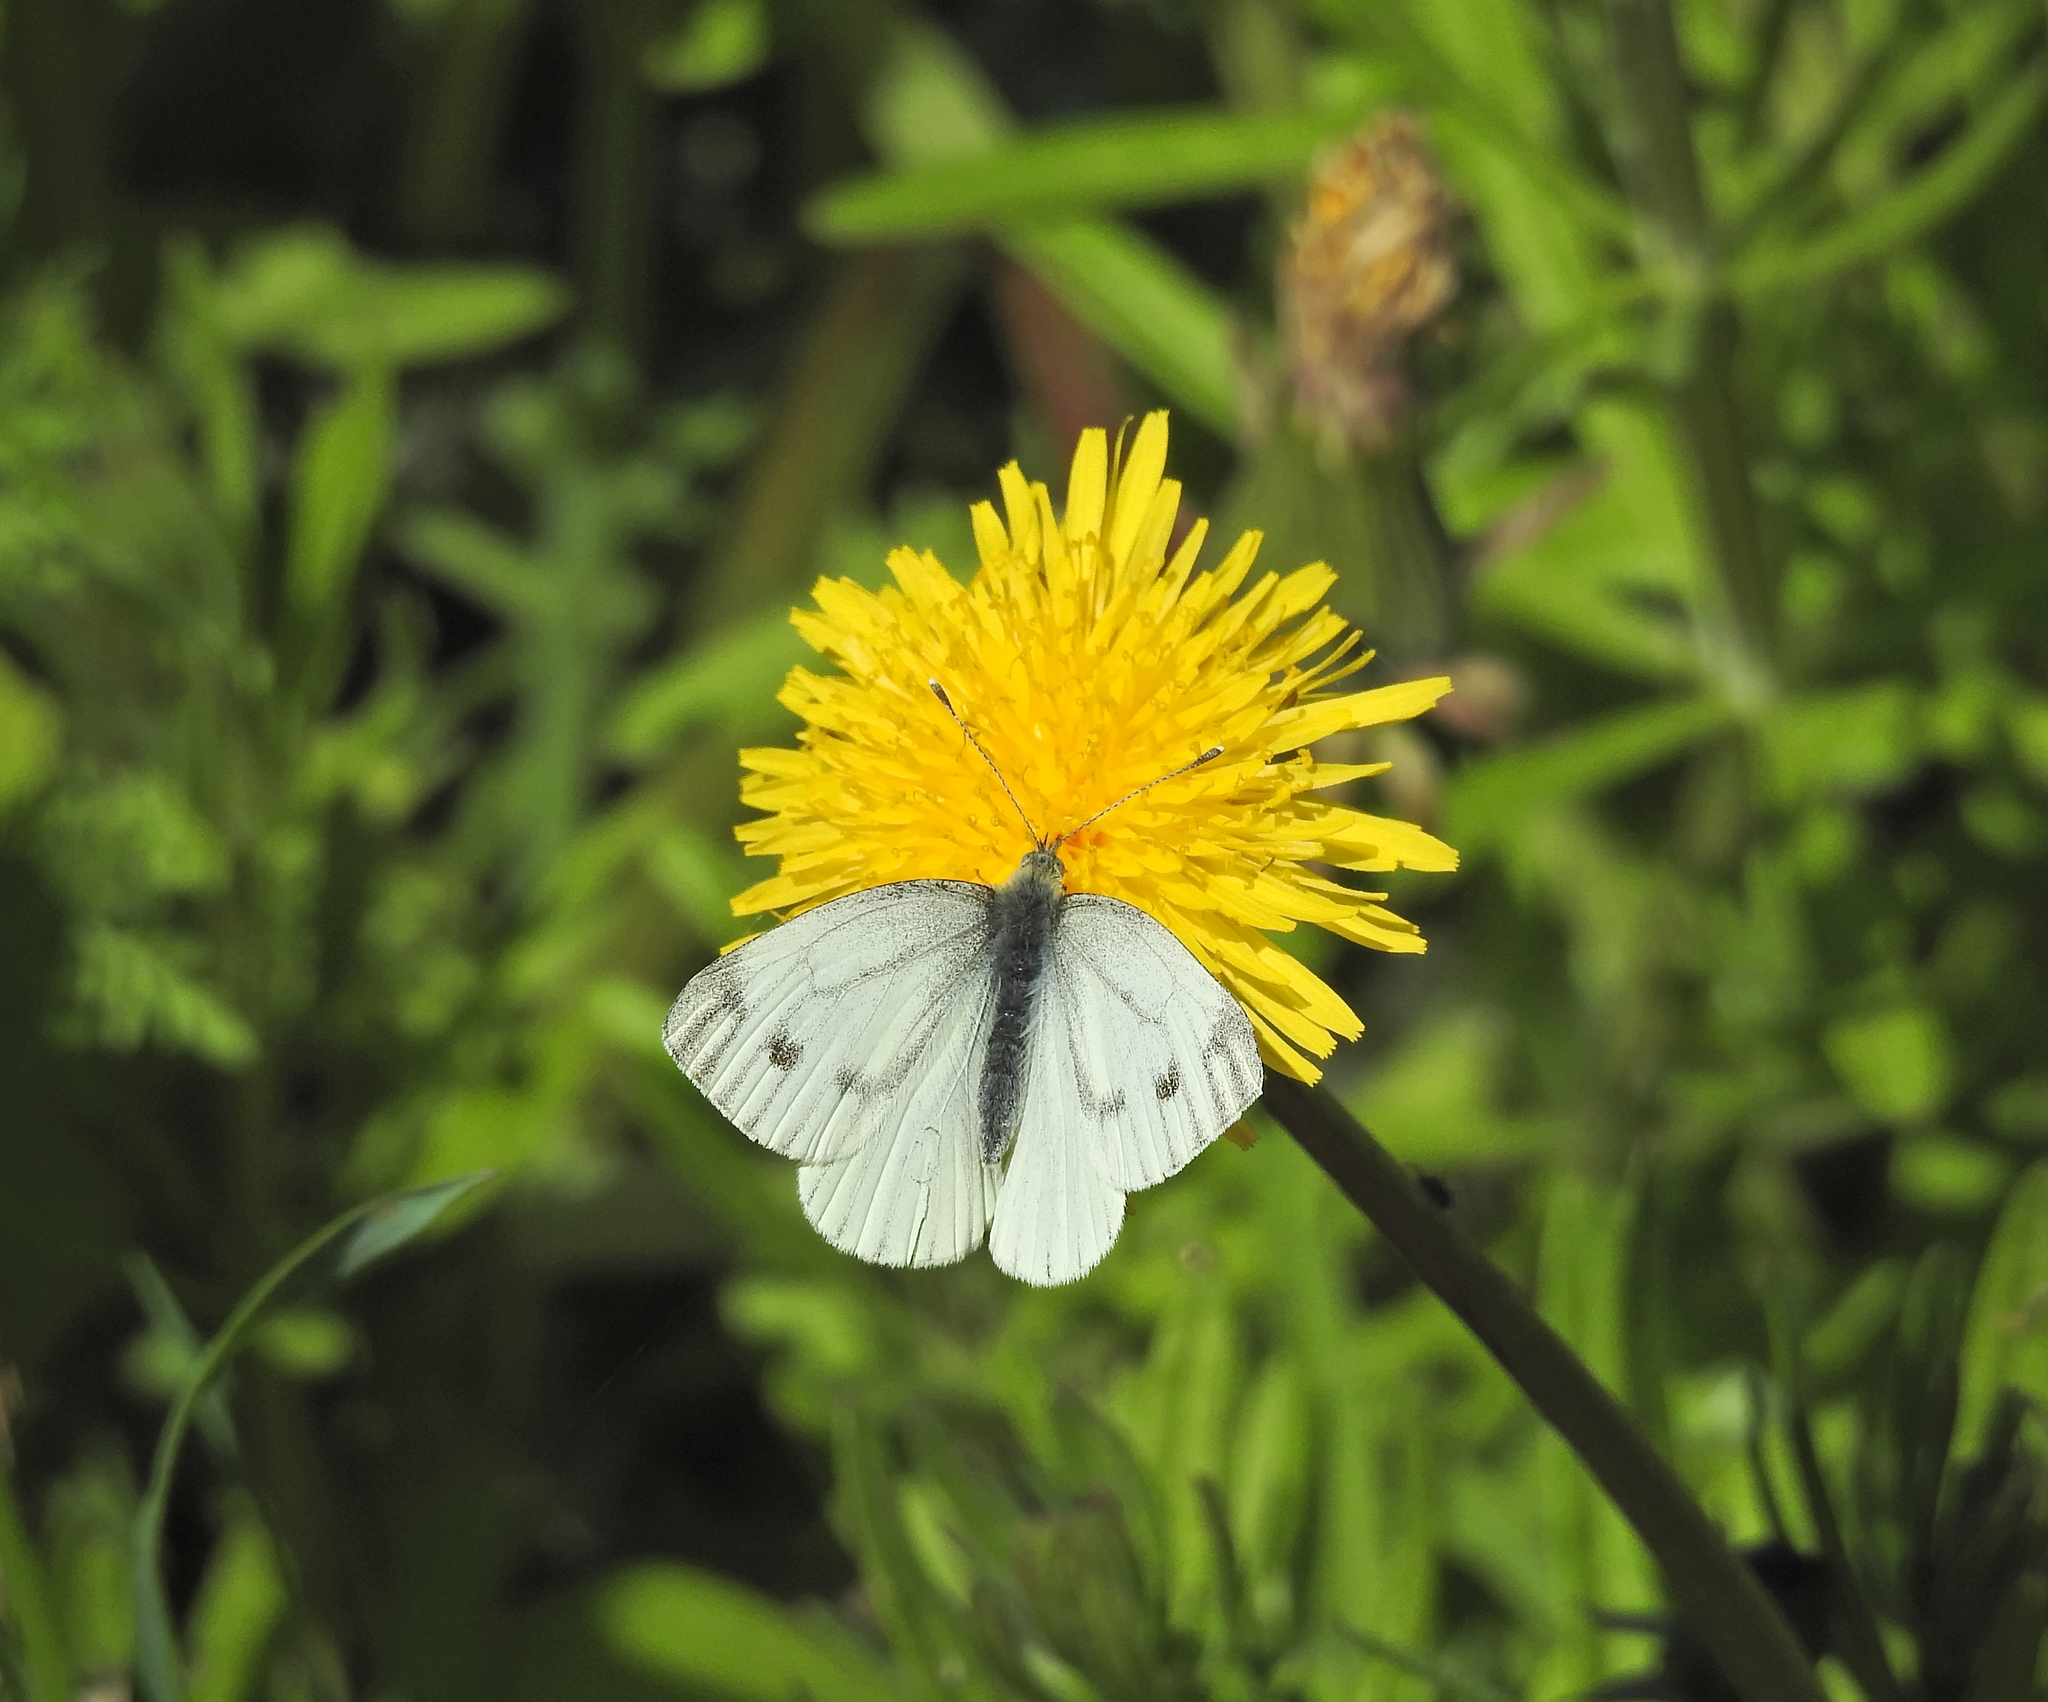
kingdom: Animalia
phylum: Arthropoda
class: Insecta
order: Lepidoptera
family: Pieridae
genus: Pieris
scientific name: Pieris napi
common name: Green-veined white
